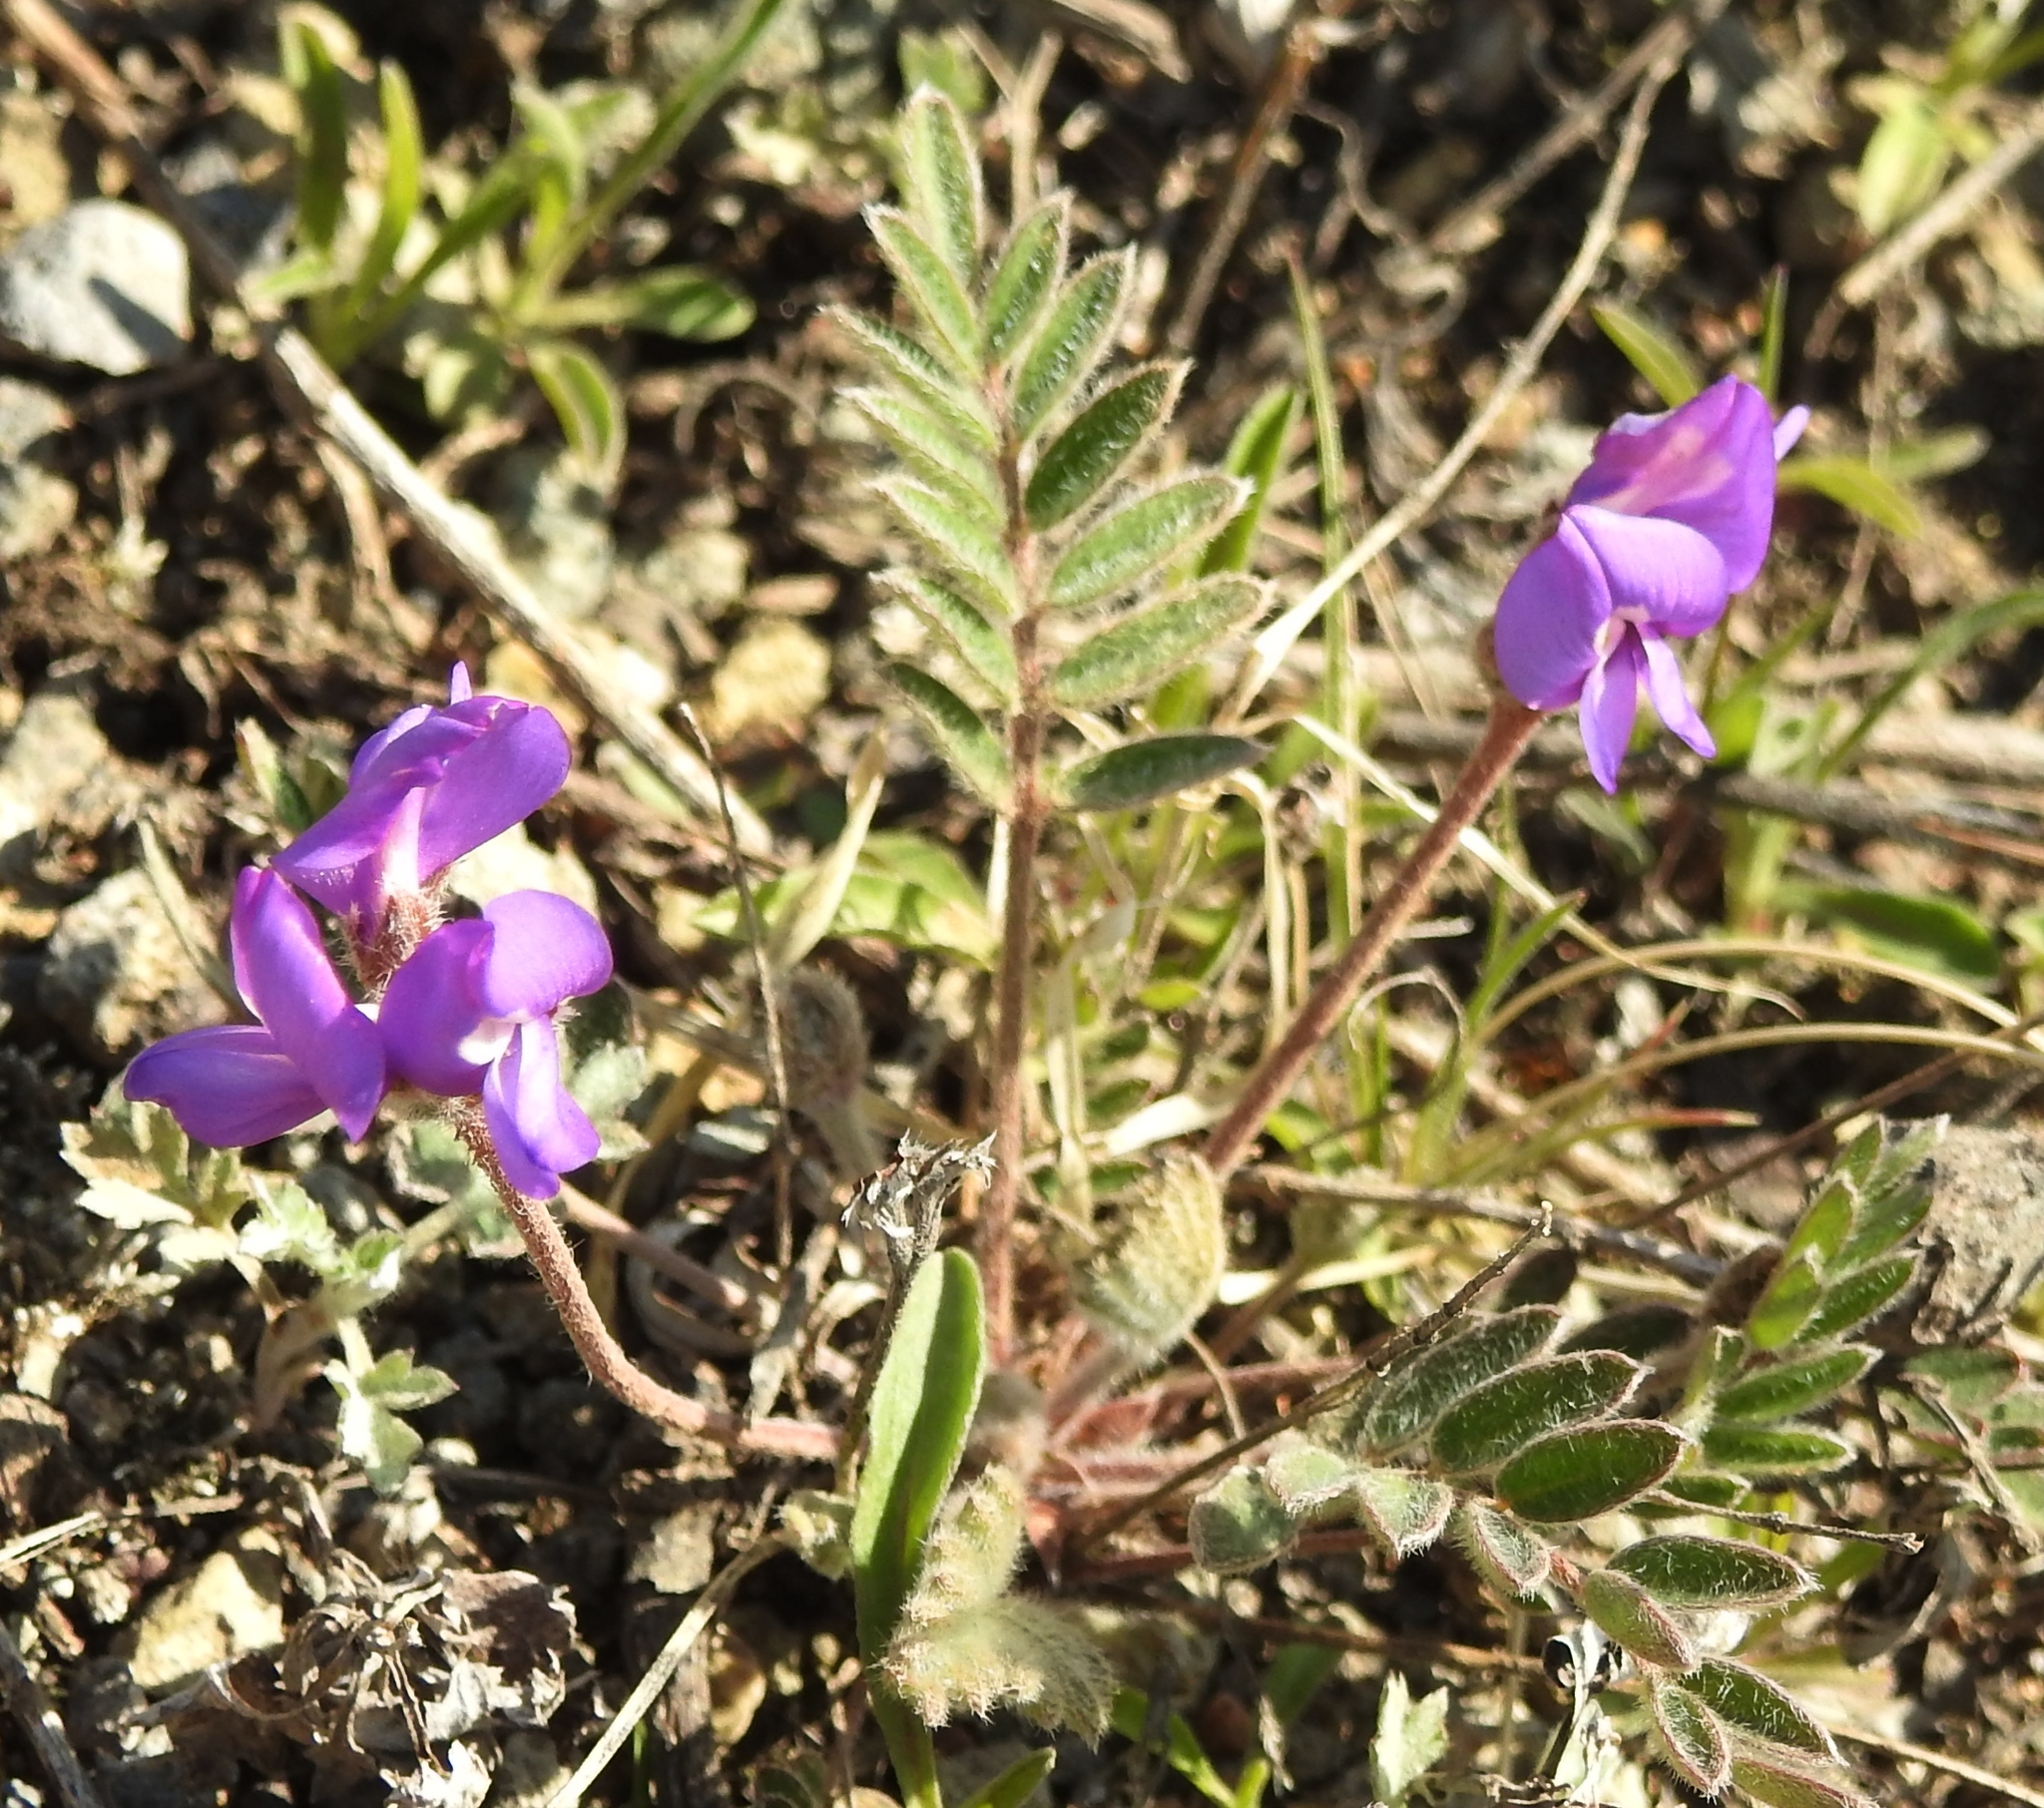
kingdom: Plantae
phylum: Tracheophyta
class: Magnoliopsida
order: Fabales
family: Fabaceae
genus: Gueldenstaedtia
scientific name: Gueldenstaedtia verna
